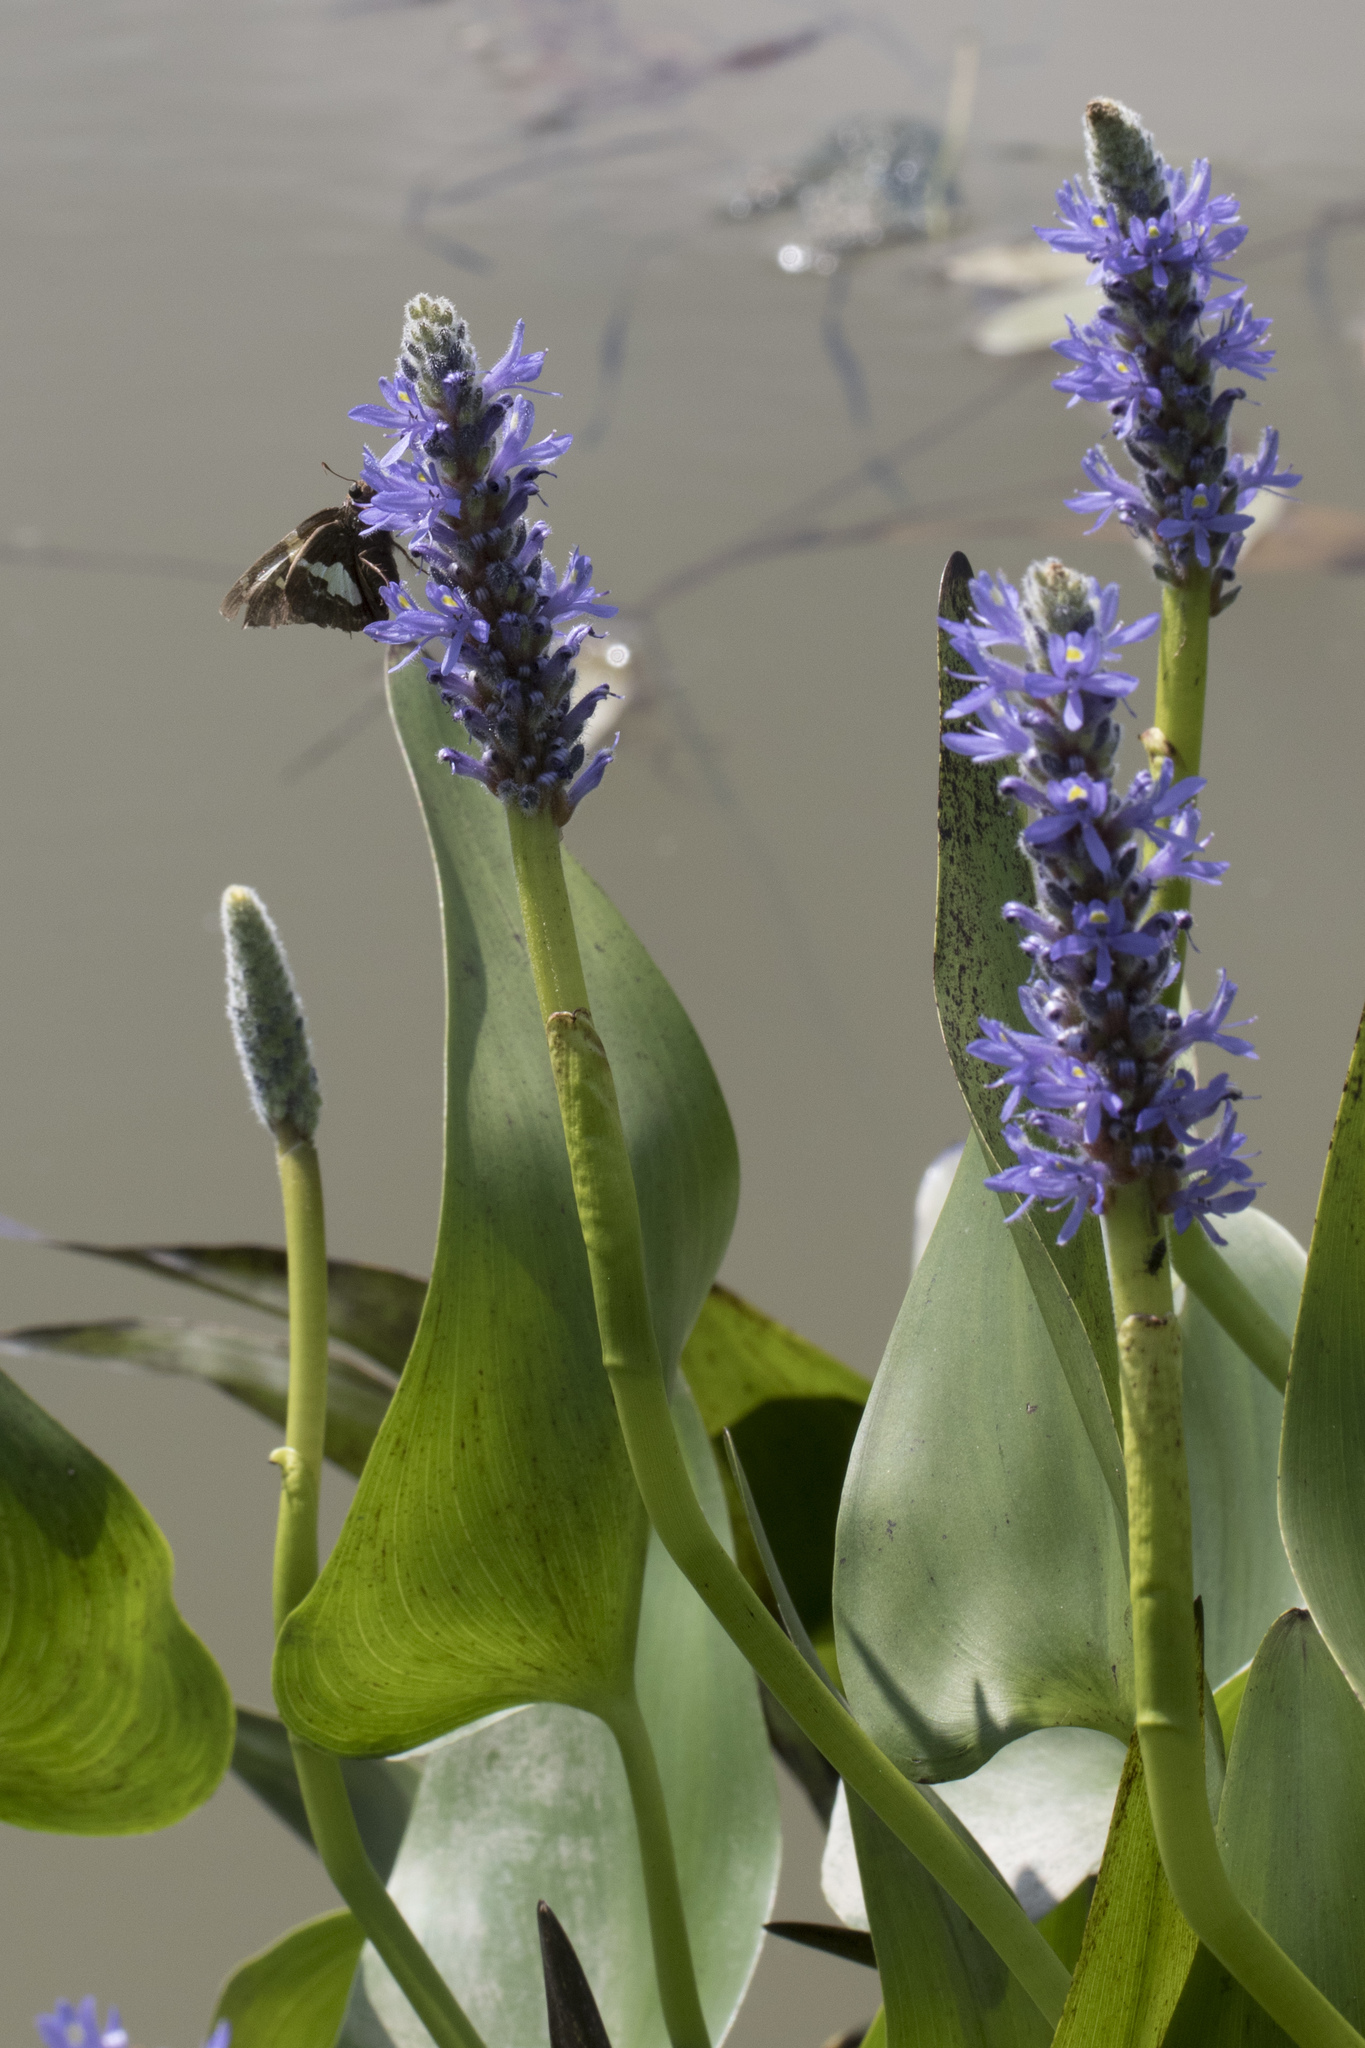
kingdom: Animalia
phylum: Arthropoda
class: Insecta
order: Lepidoptera
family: Hesperiidae
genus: Epargyreus
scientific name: Epargyreus clarus
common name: Silver-spotted skipper
